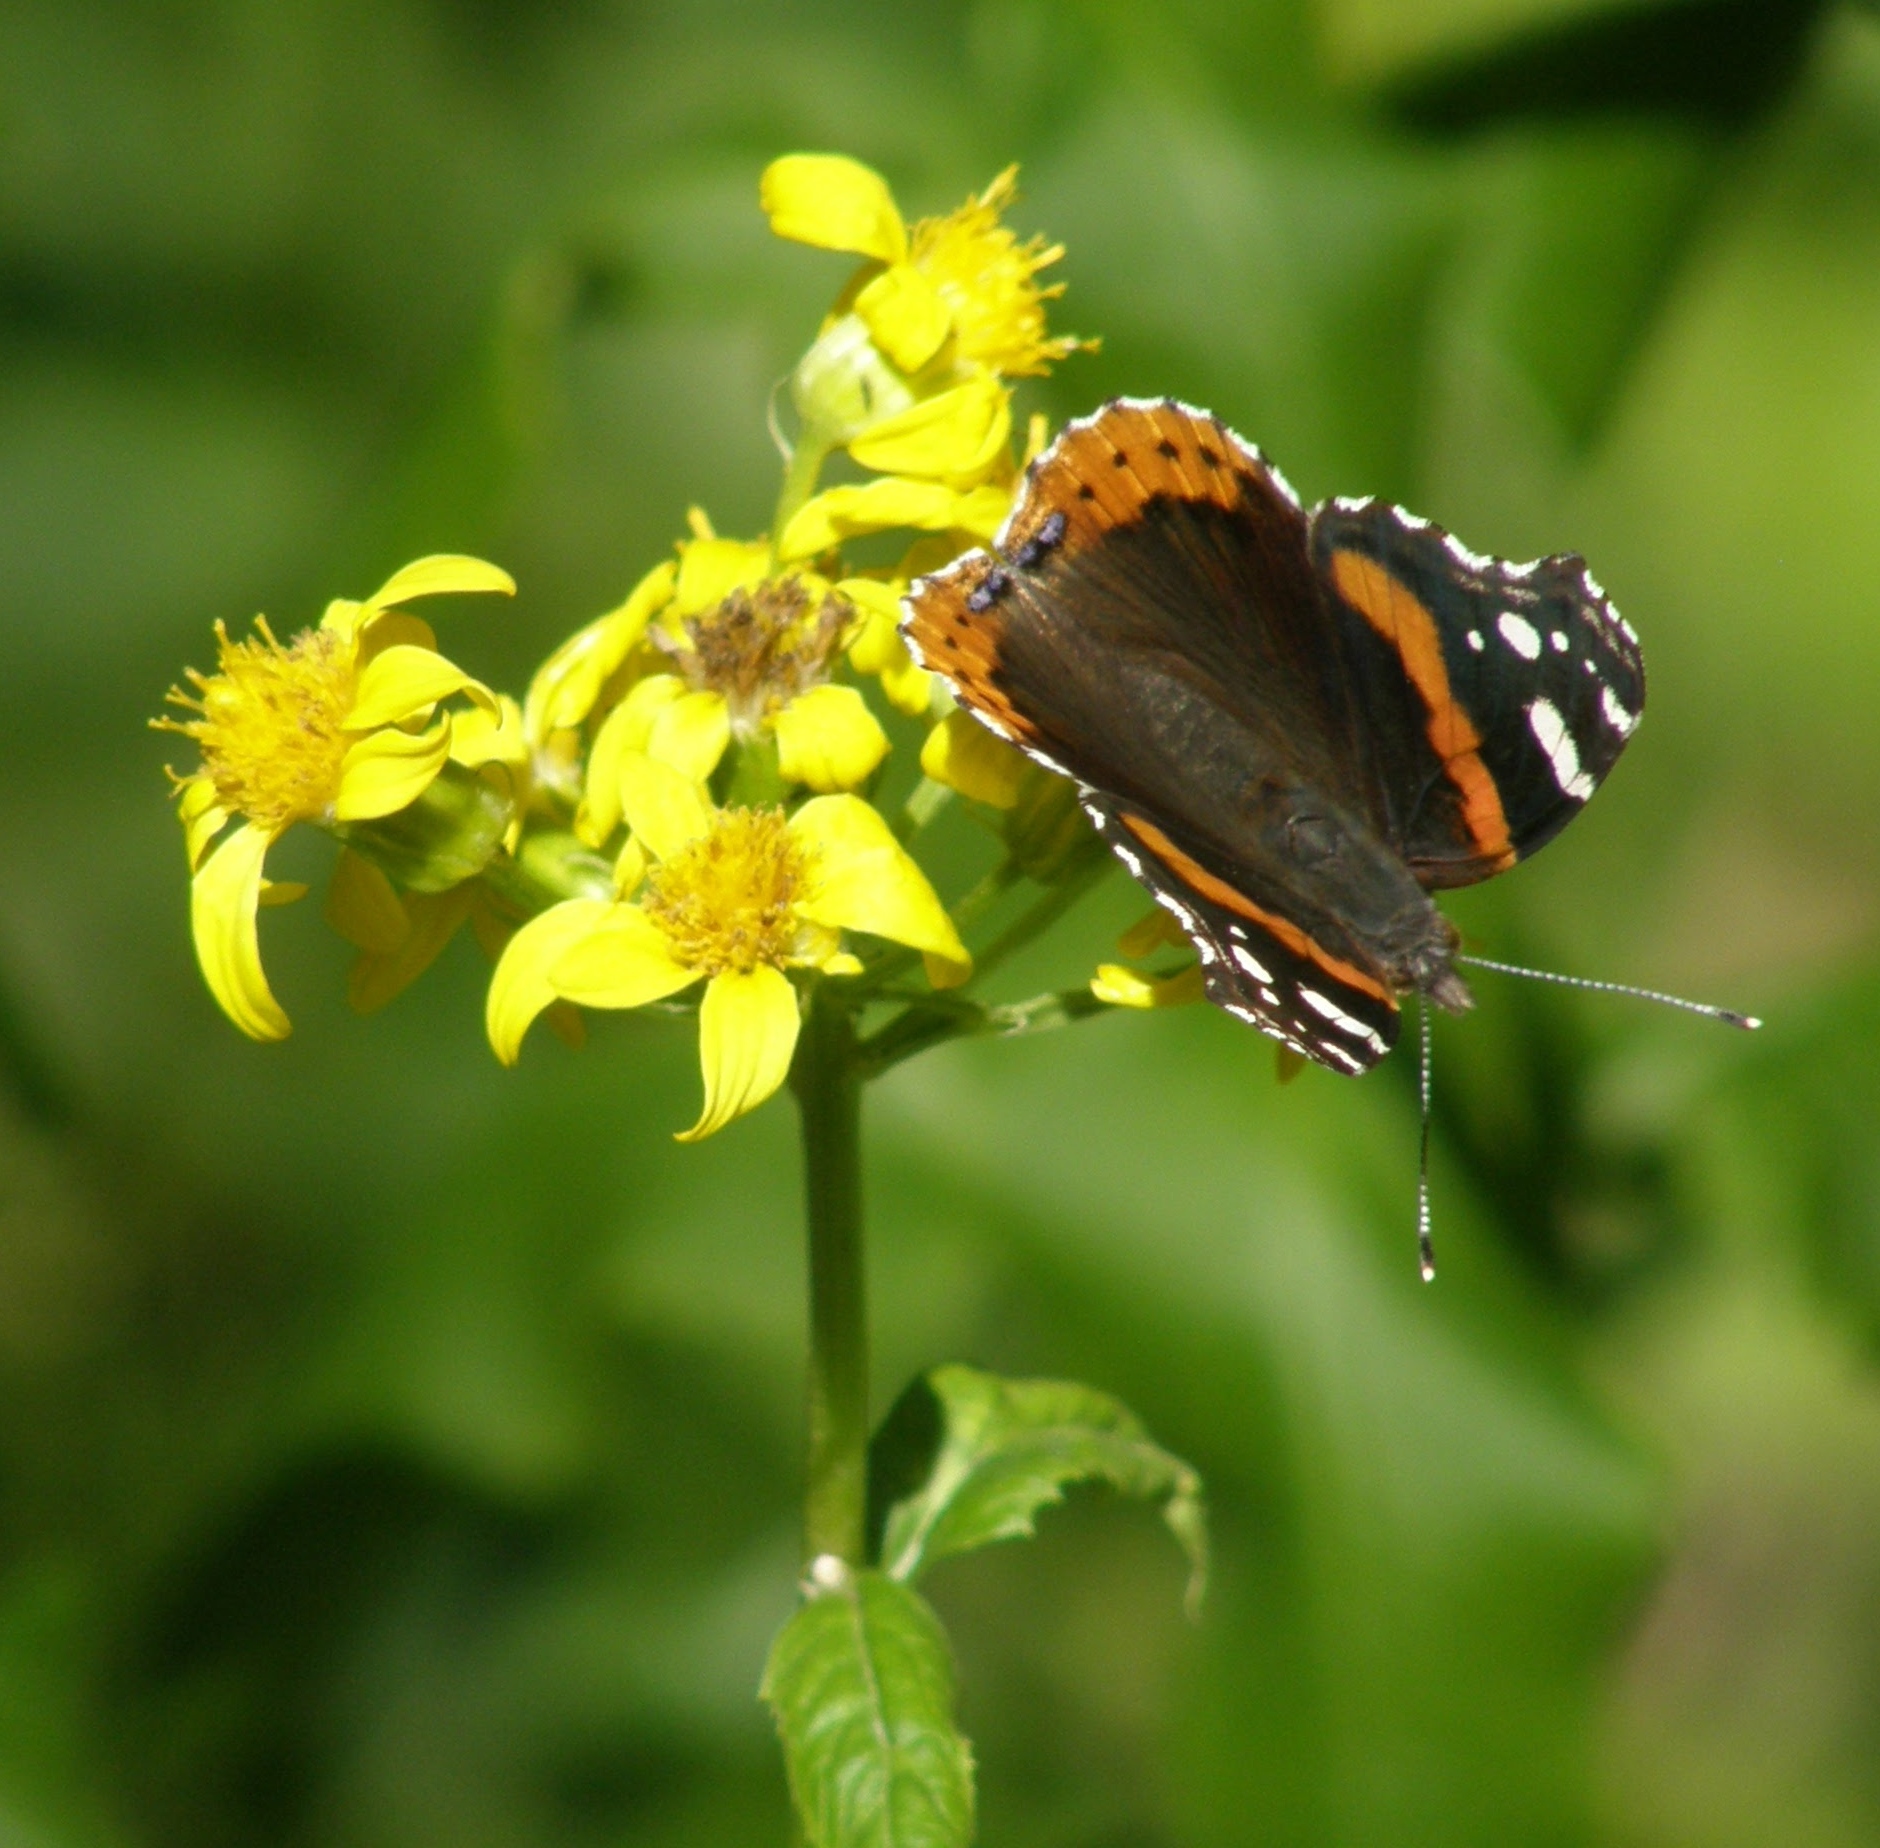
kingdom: Animalia
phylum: Arthropoda
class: Insecta
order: Lepidoptera
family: Nymphalidae
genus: Vanessa
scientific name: Vanessa atalanta
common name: Red admiral
